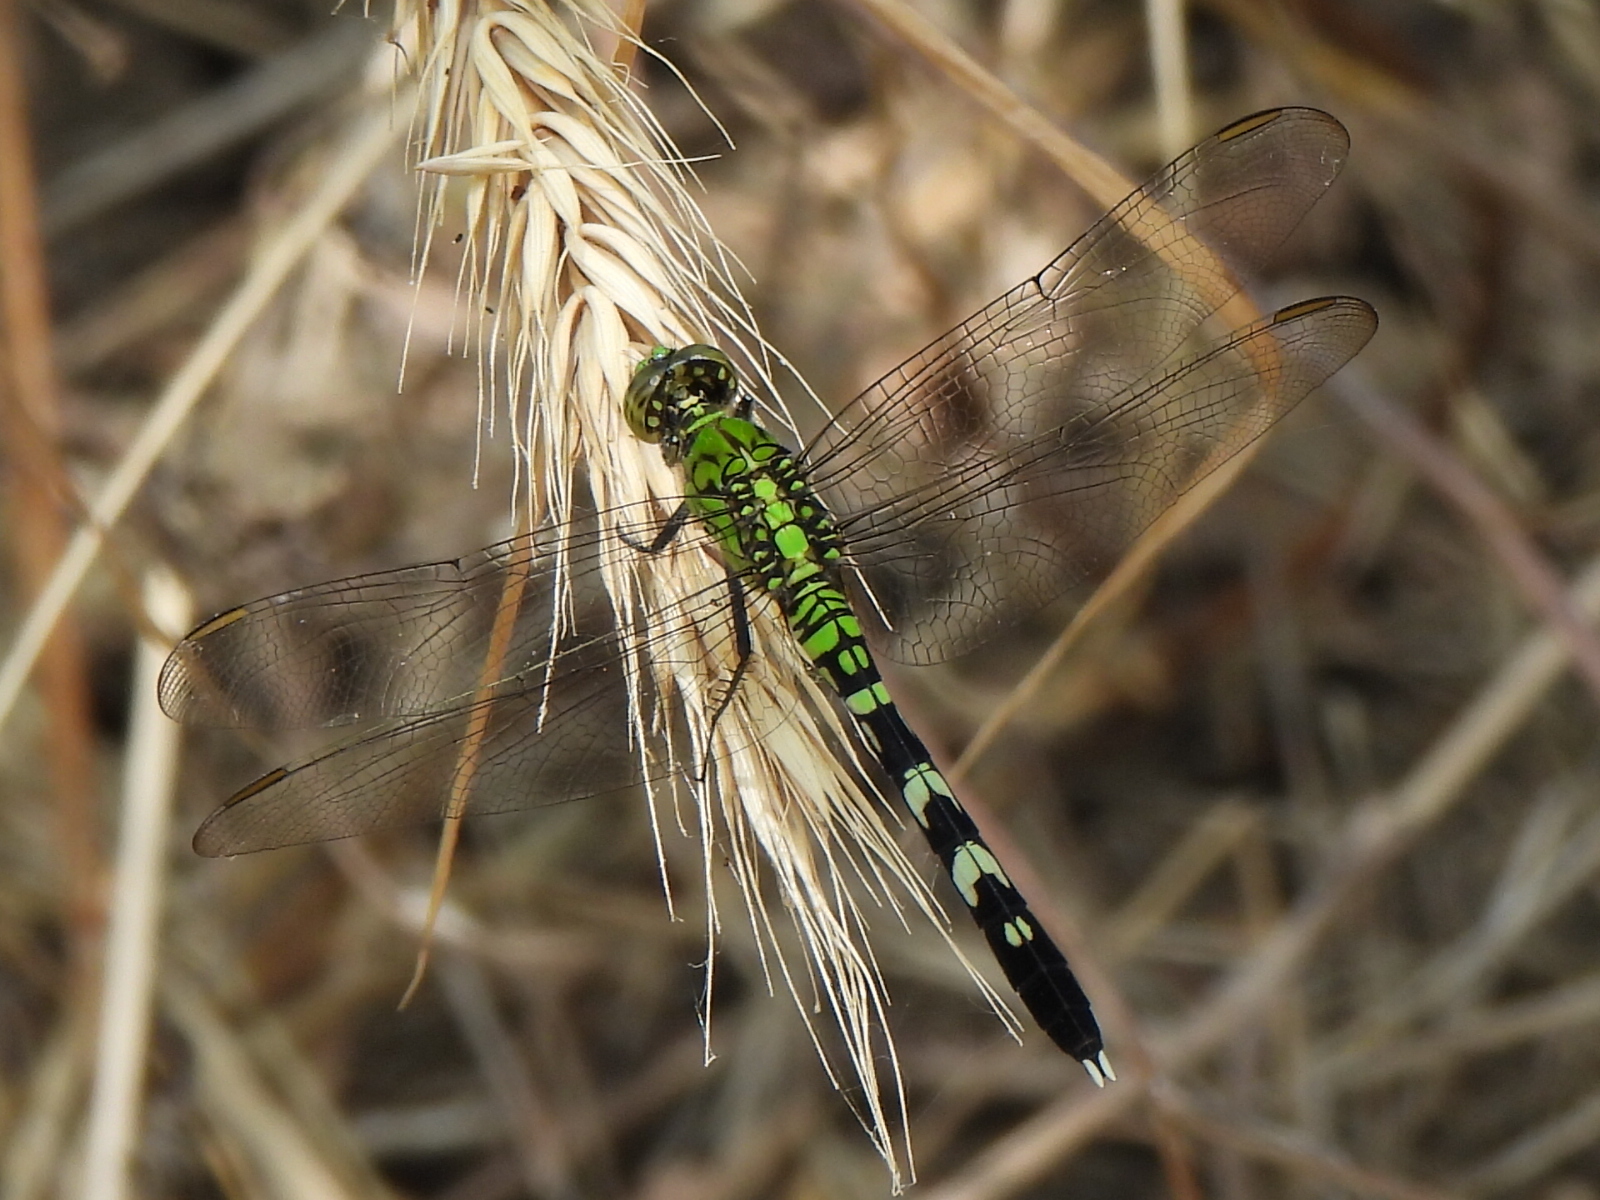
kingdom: Animalia
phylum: Arthropoda
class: Insecta
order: Odonata
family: Libellulidae
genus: Erythemis
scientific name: Erythemis simplicicollis
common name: Eastern pondhawk
